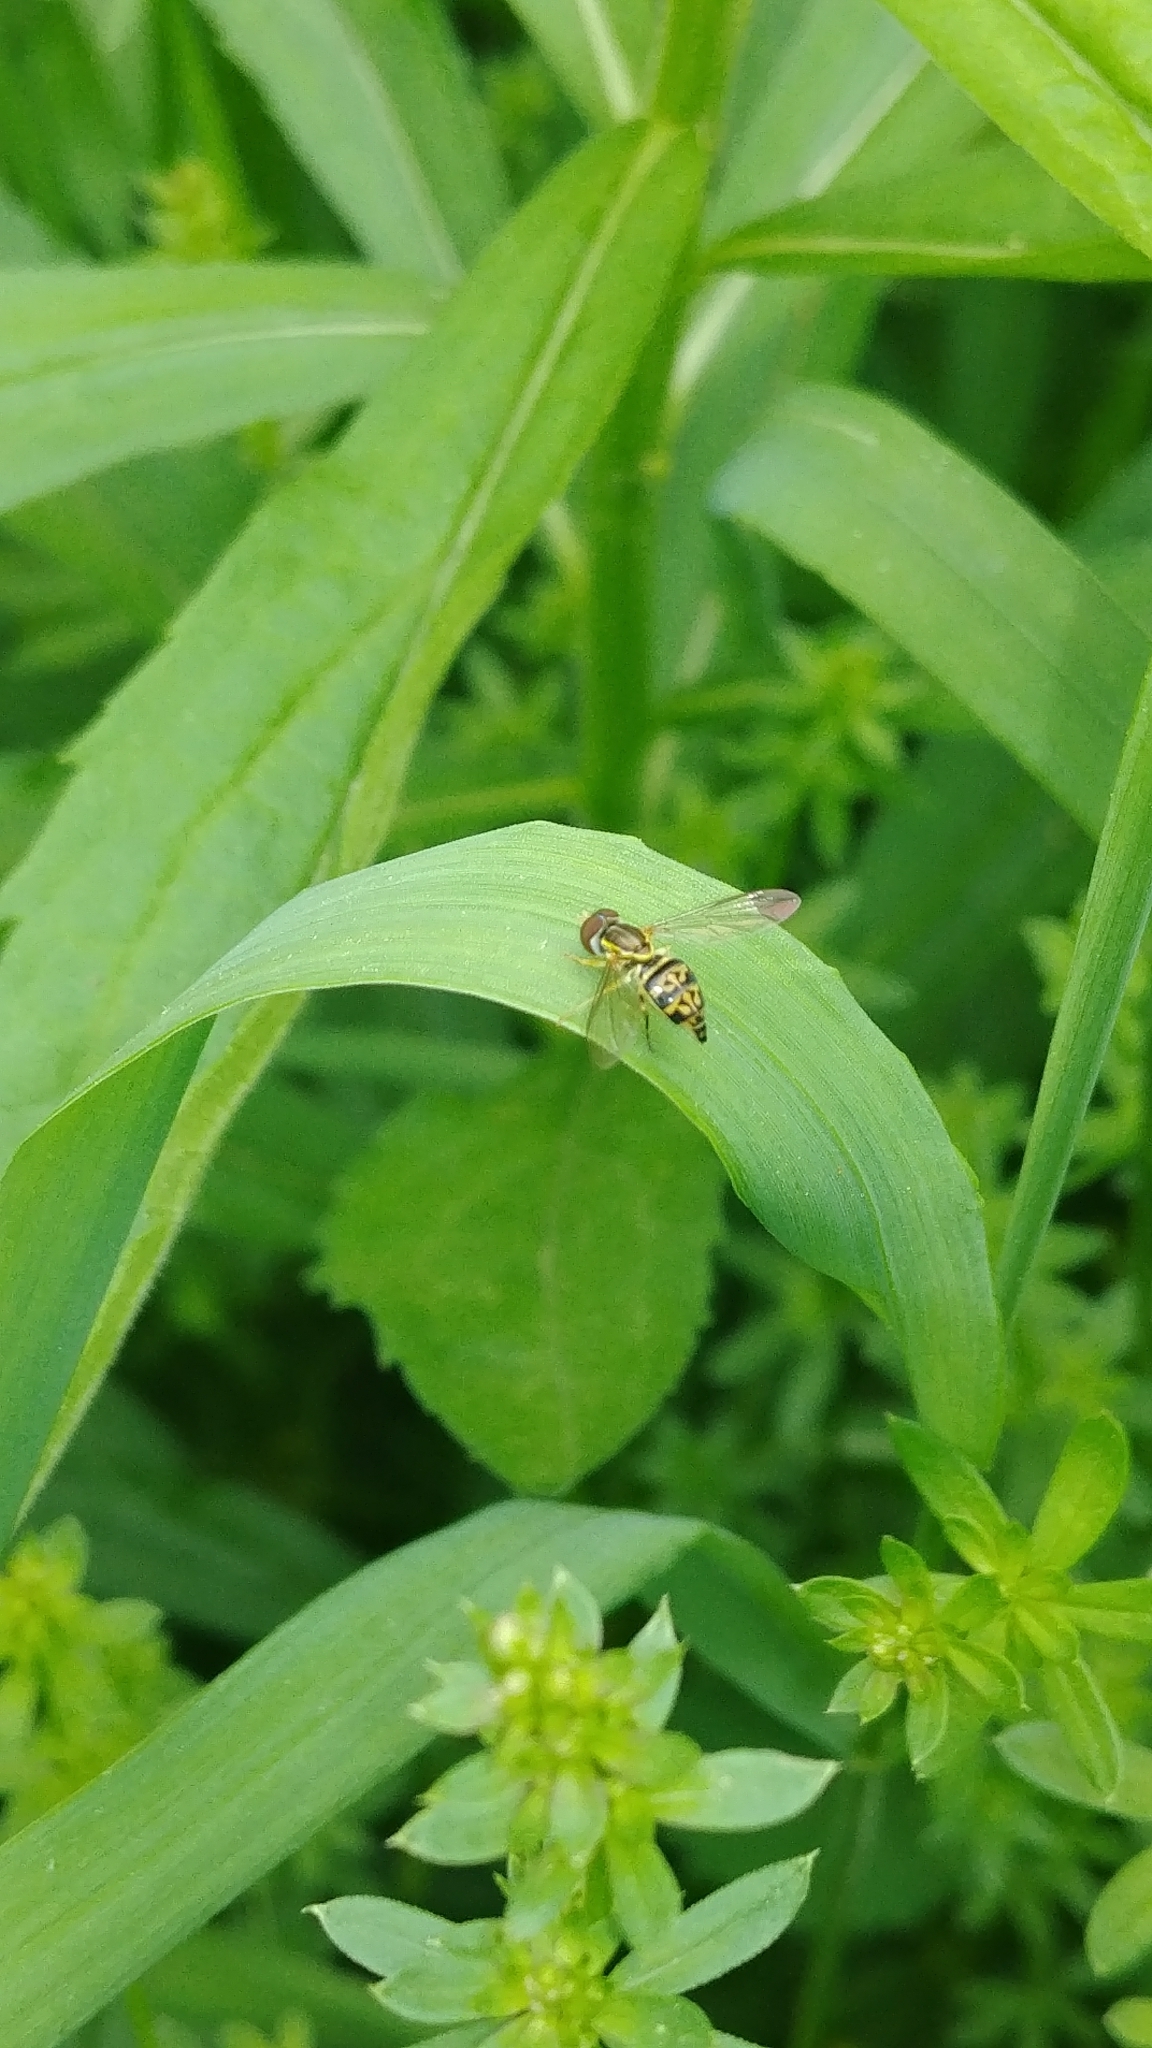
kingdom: Animalia
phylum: Arthropoda
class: Insecta
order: Diptera
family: Syrphidae
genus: Toxomerus
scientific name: Toxomerus geminatus
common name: Eastern calligrapher
